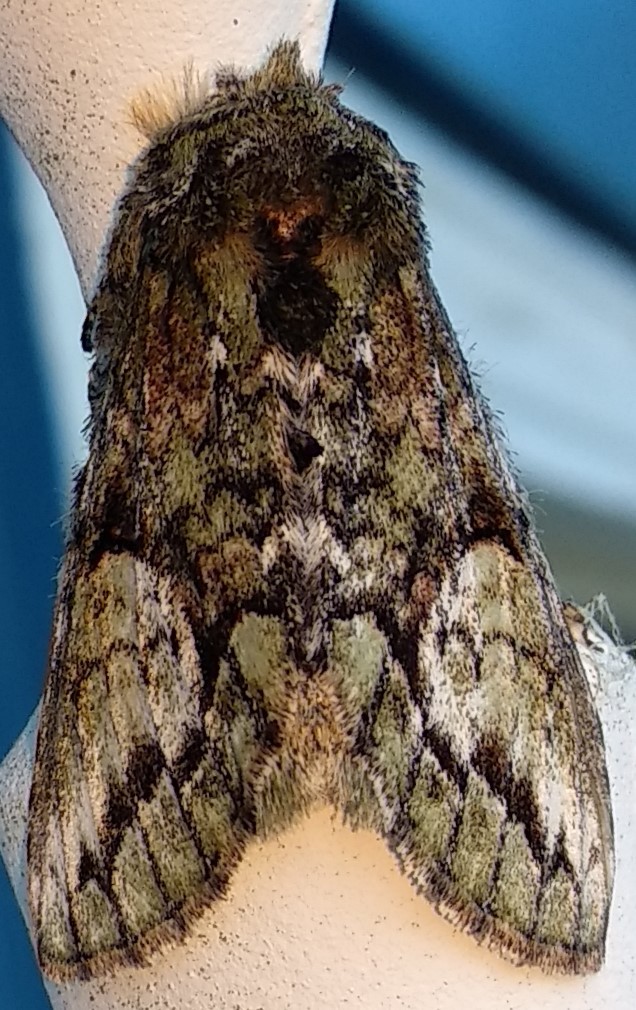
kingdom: Animalia
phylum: Arthropoda
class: Insecta
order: Lepidoptera
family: Notodontidae
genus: Heterocampa
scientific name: Heterocampa
